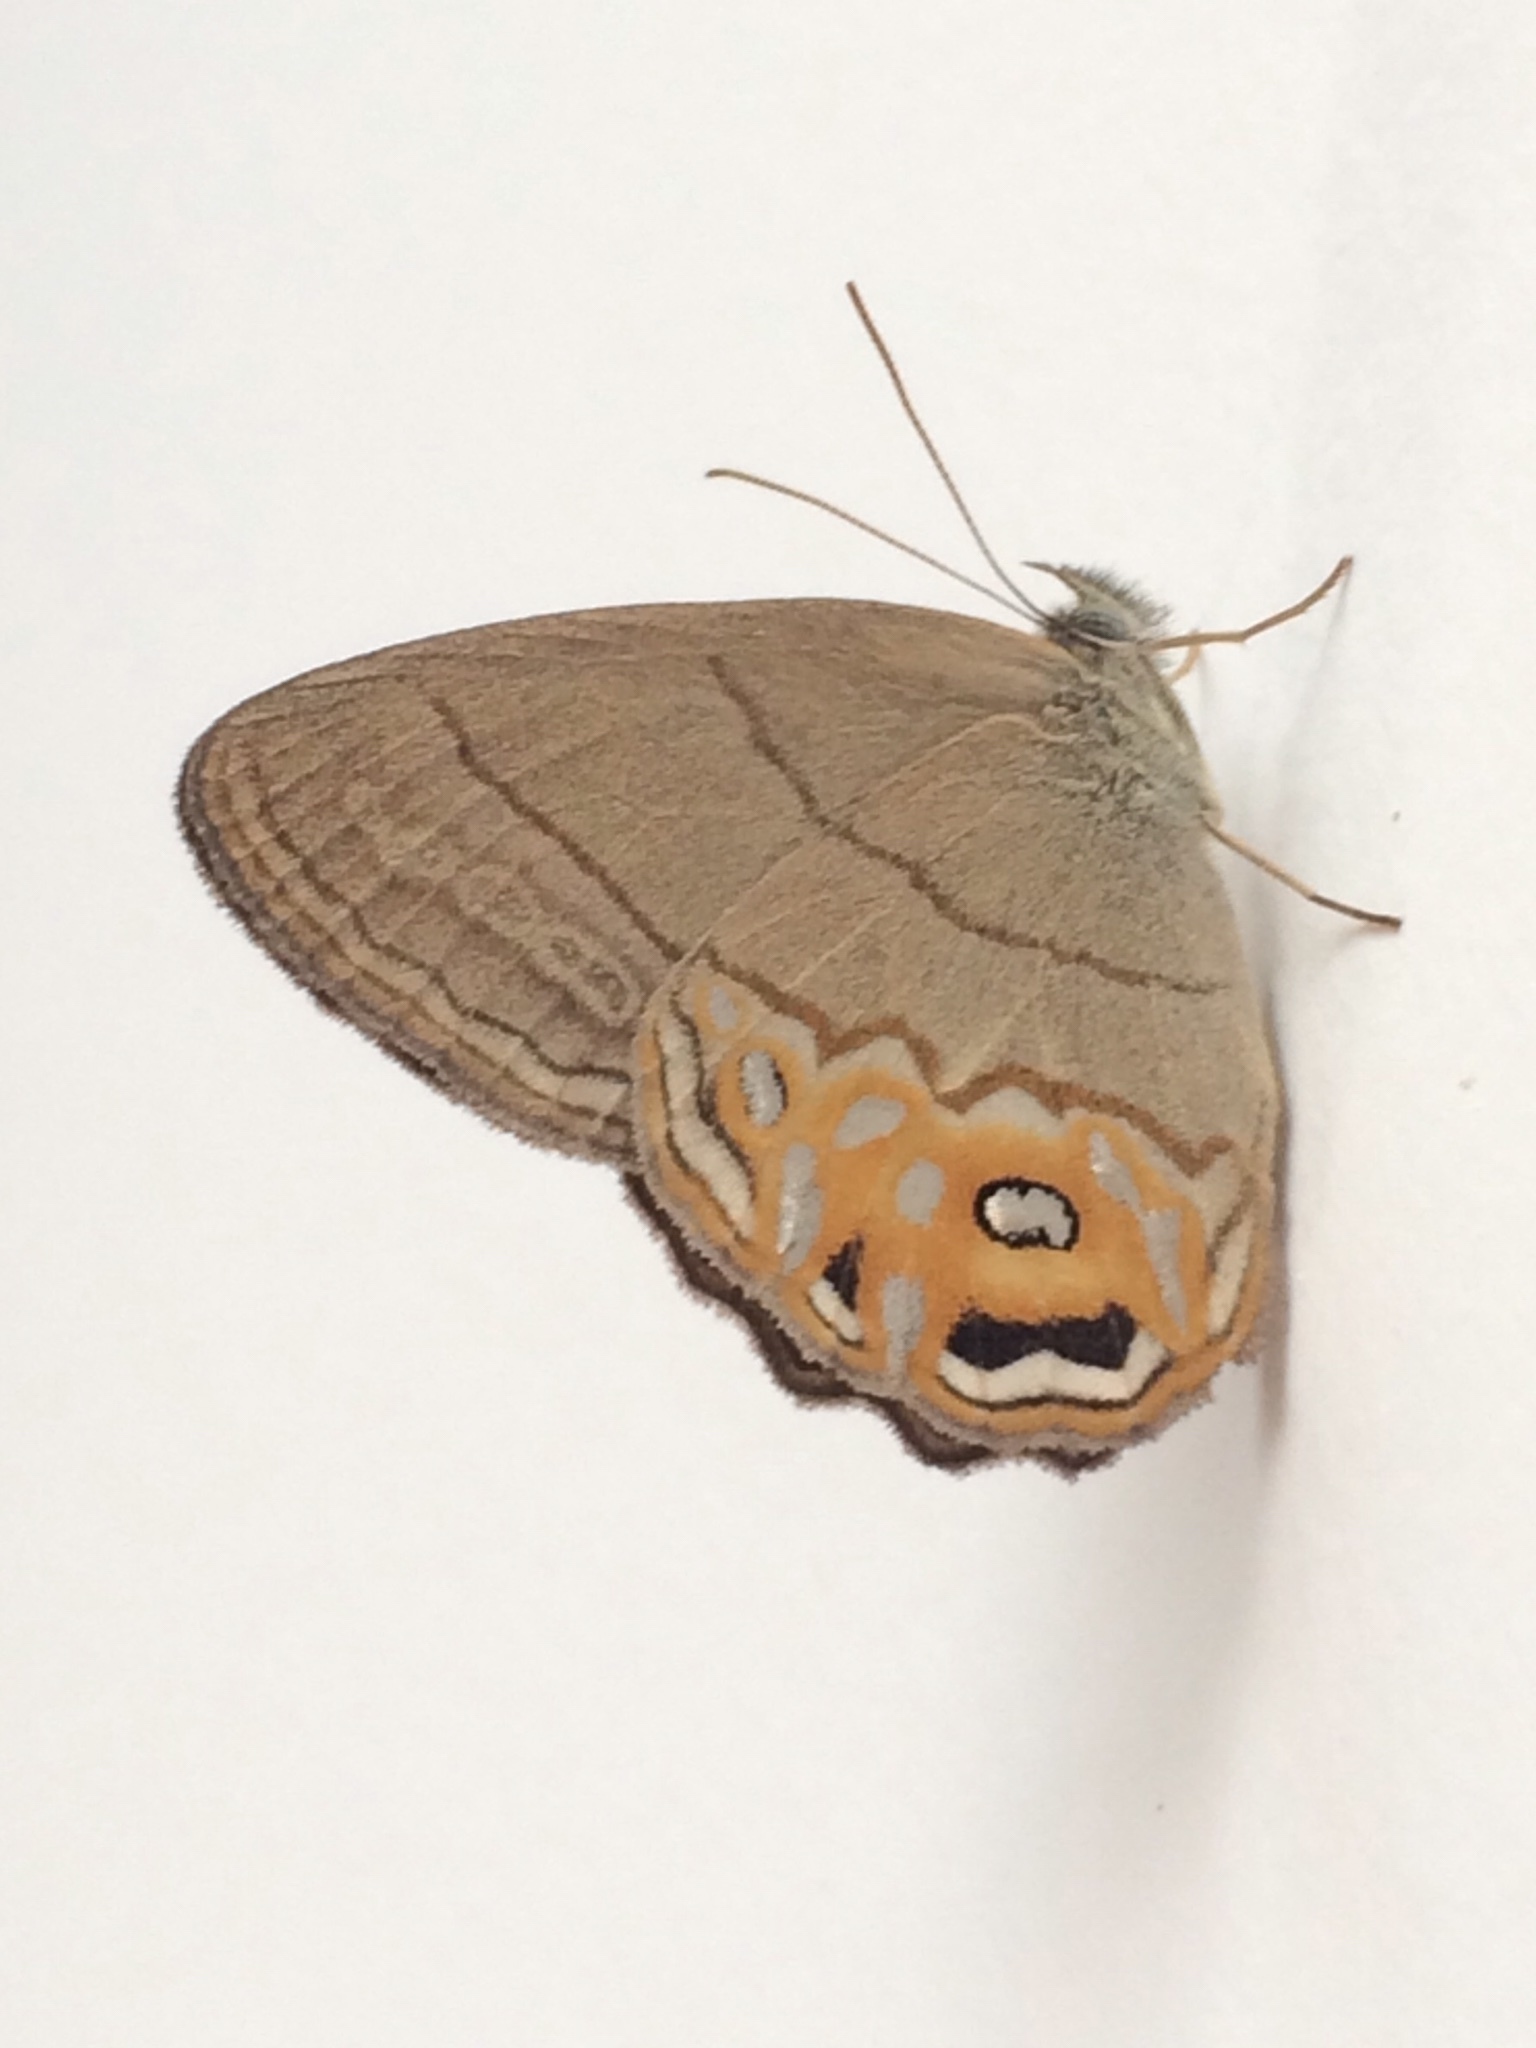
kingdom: Animalia
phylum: Arthropoda
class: Insecta
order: Lepidoptera
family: Nymphalidae
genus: Splendeuptychia
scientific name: Splendeuptychia libitina
